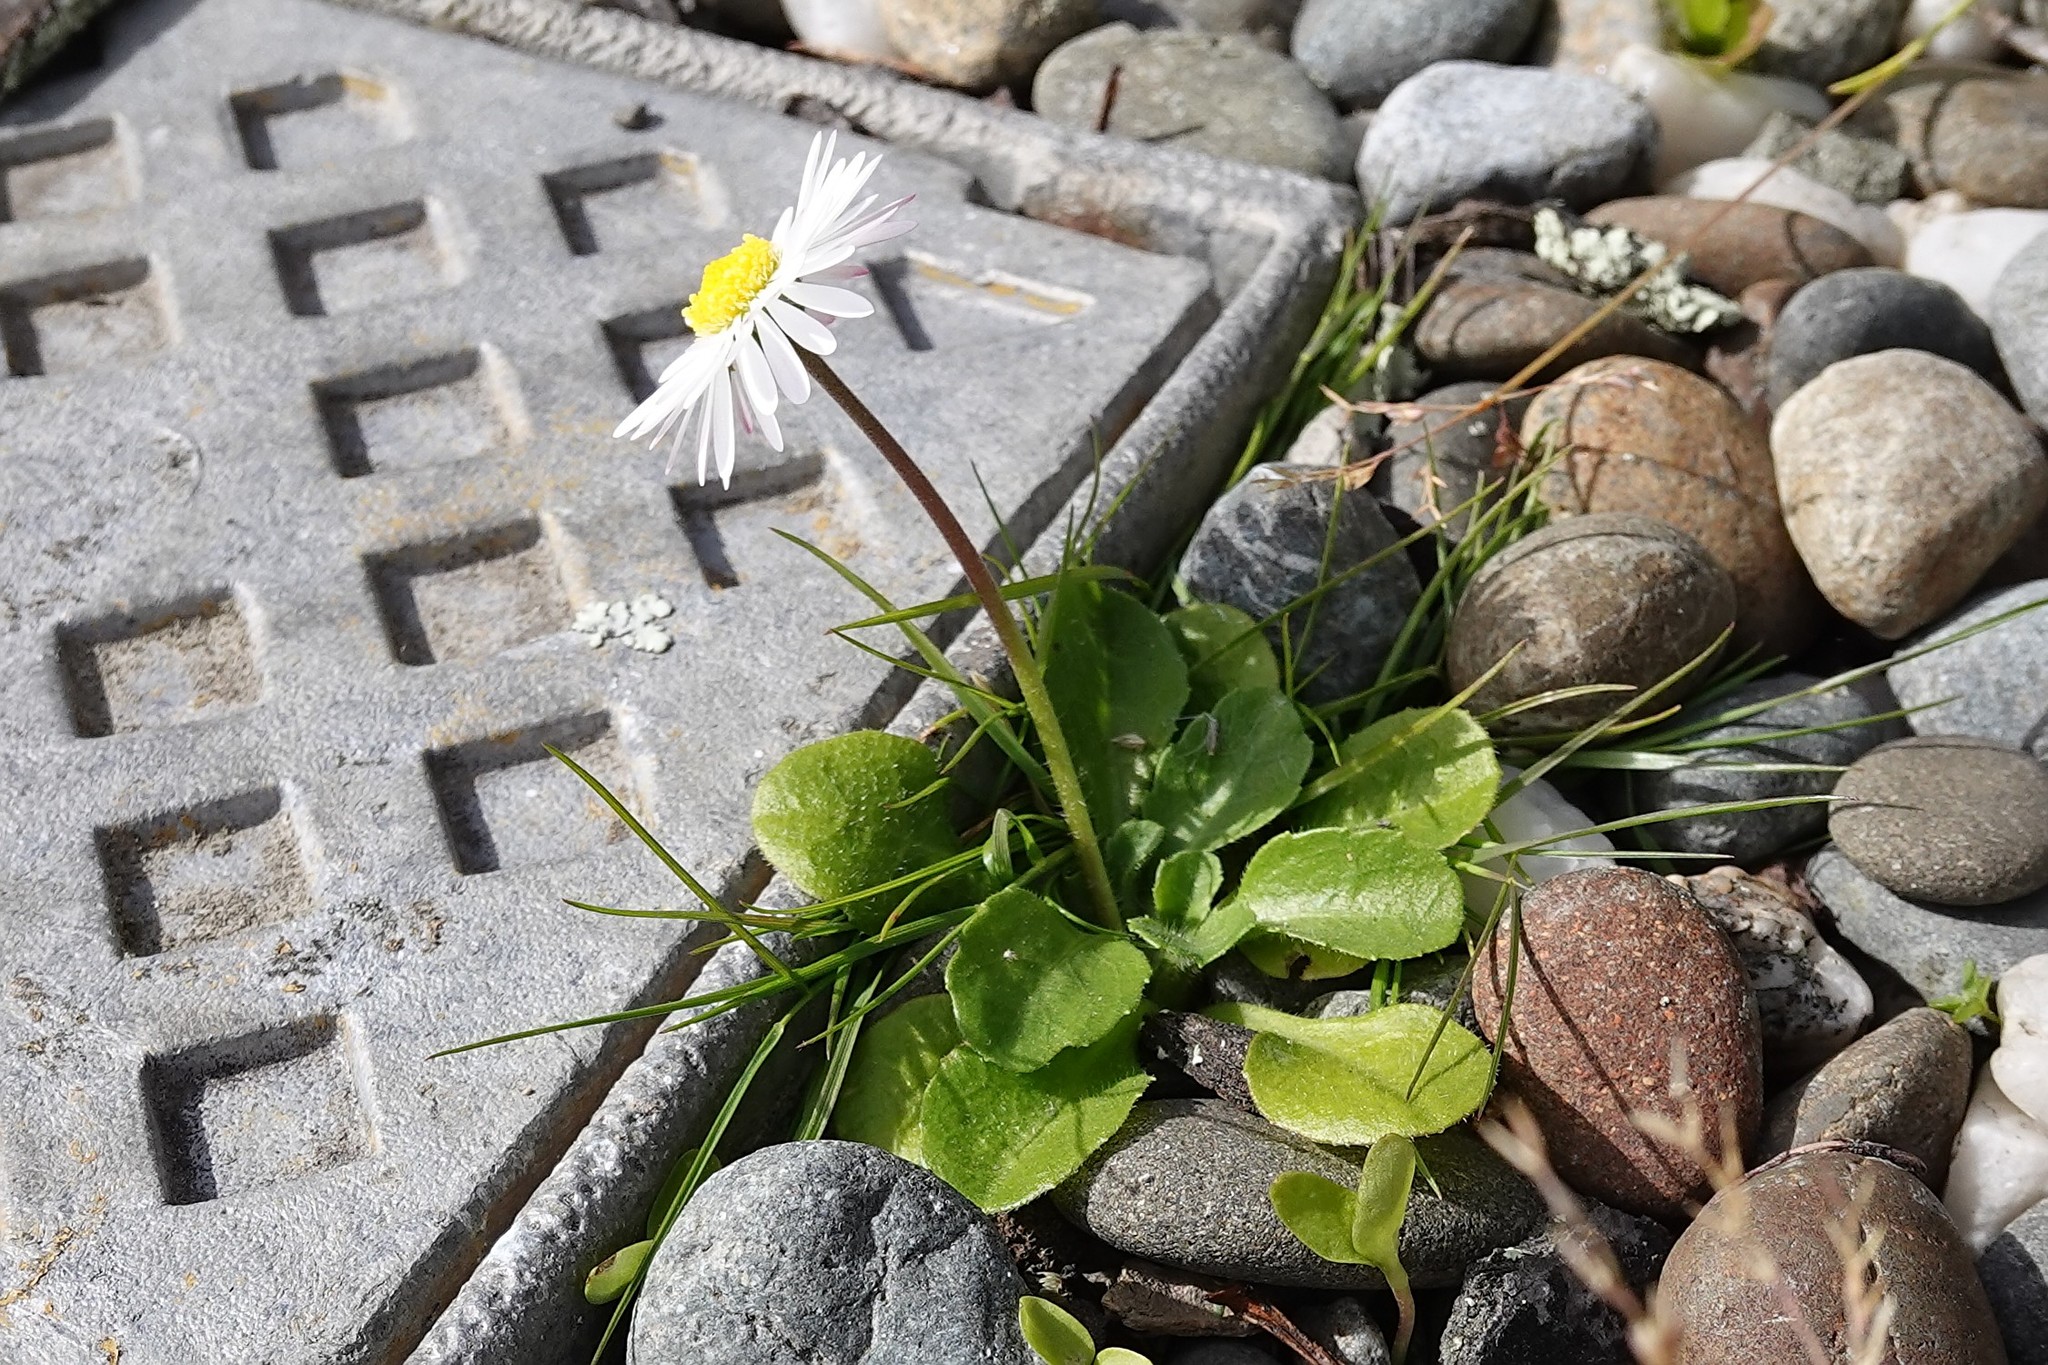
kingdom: Plantae
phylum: Tracheophyta
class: Magnoliopsida
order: Asterales
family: Asteraceae
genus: Bellis
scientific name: Bellis perennis
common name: Lawndaisy
